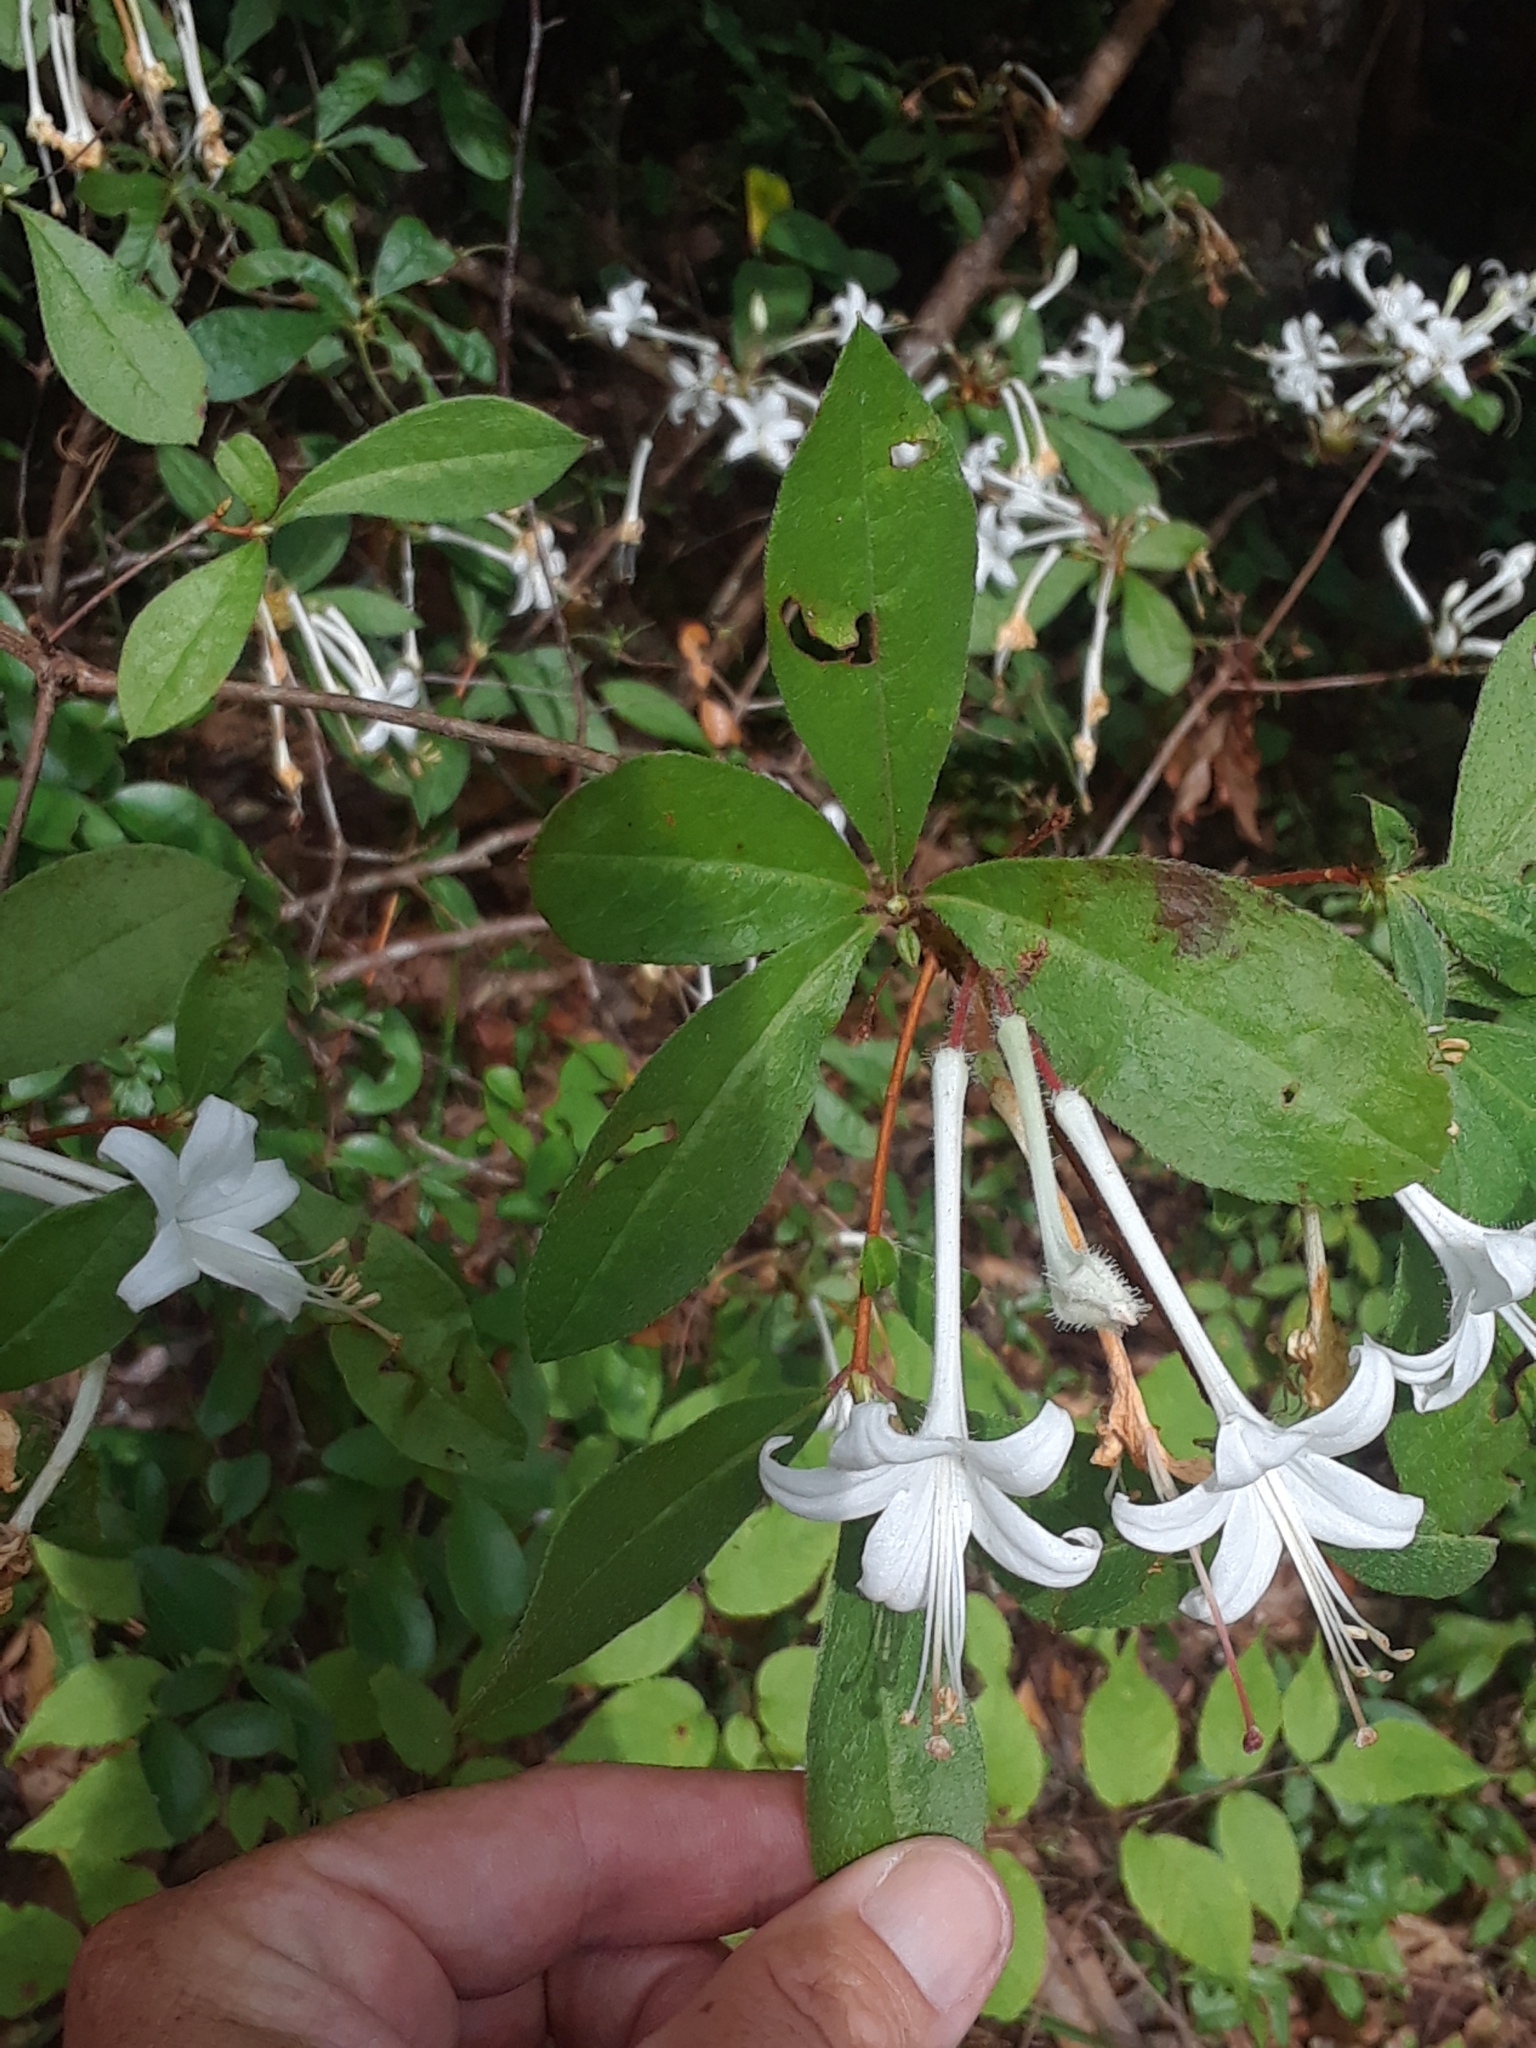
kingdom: Plantae
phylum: Tracheophyta
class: Magnoliopsida
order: Ericales
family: Ericaceae
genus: Rhododendron
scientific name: Rhododendron serrulatum
